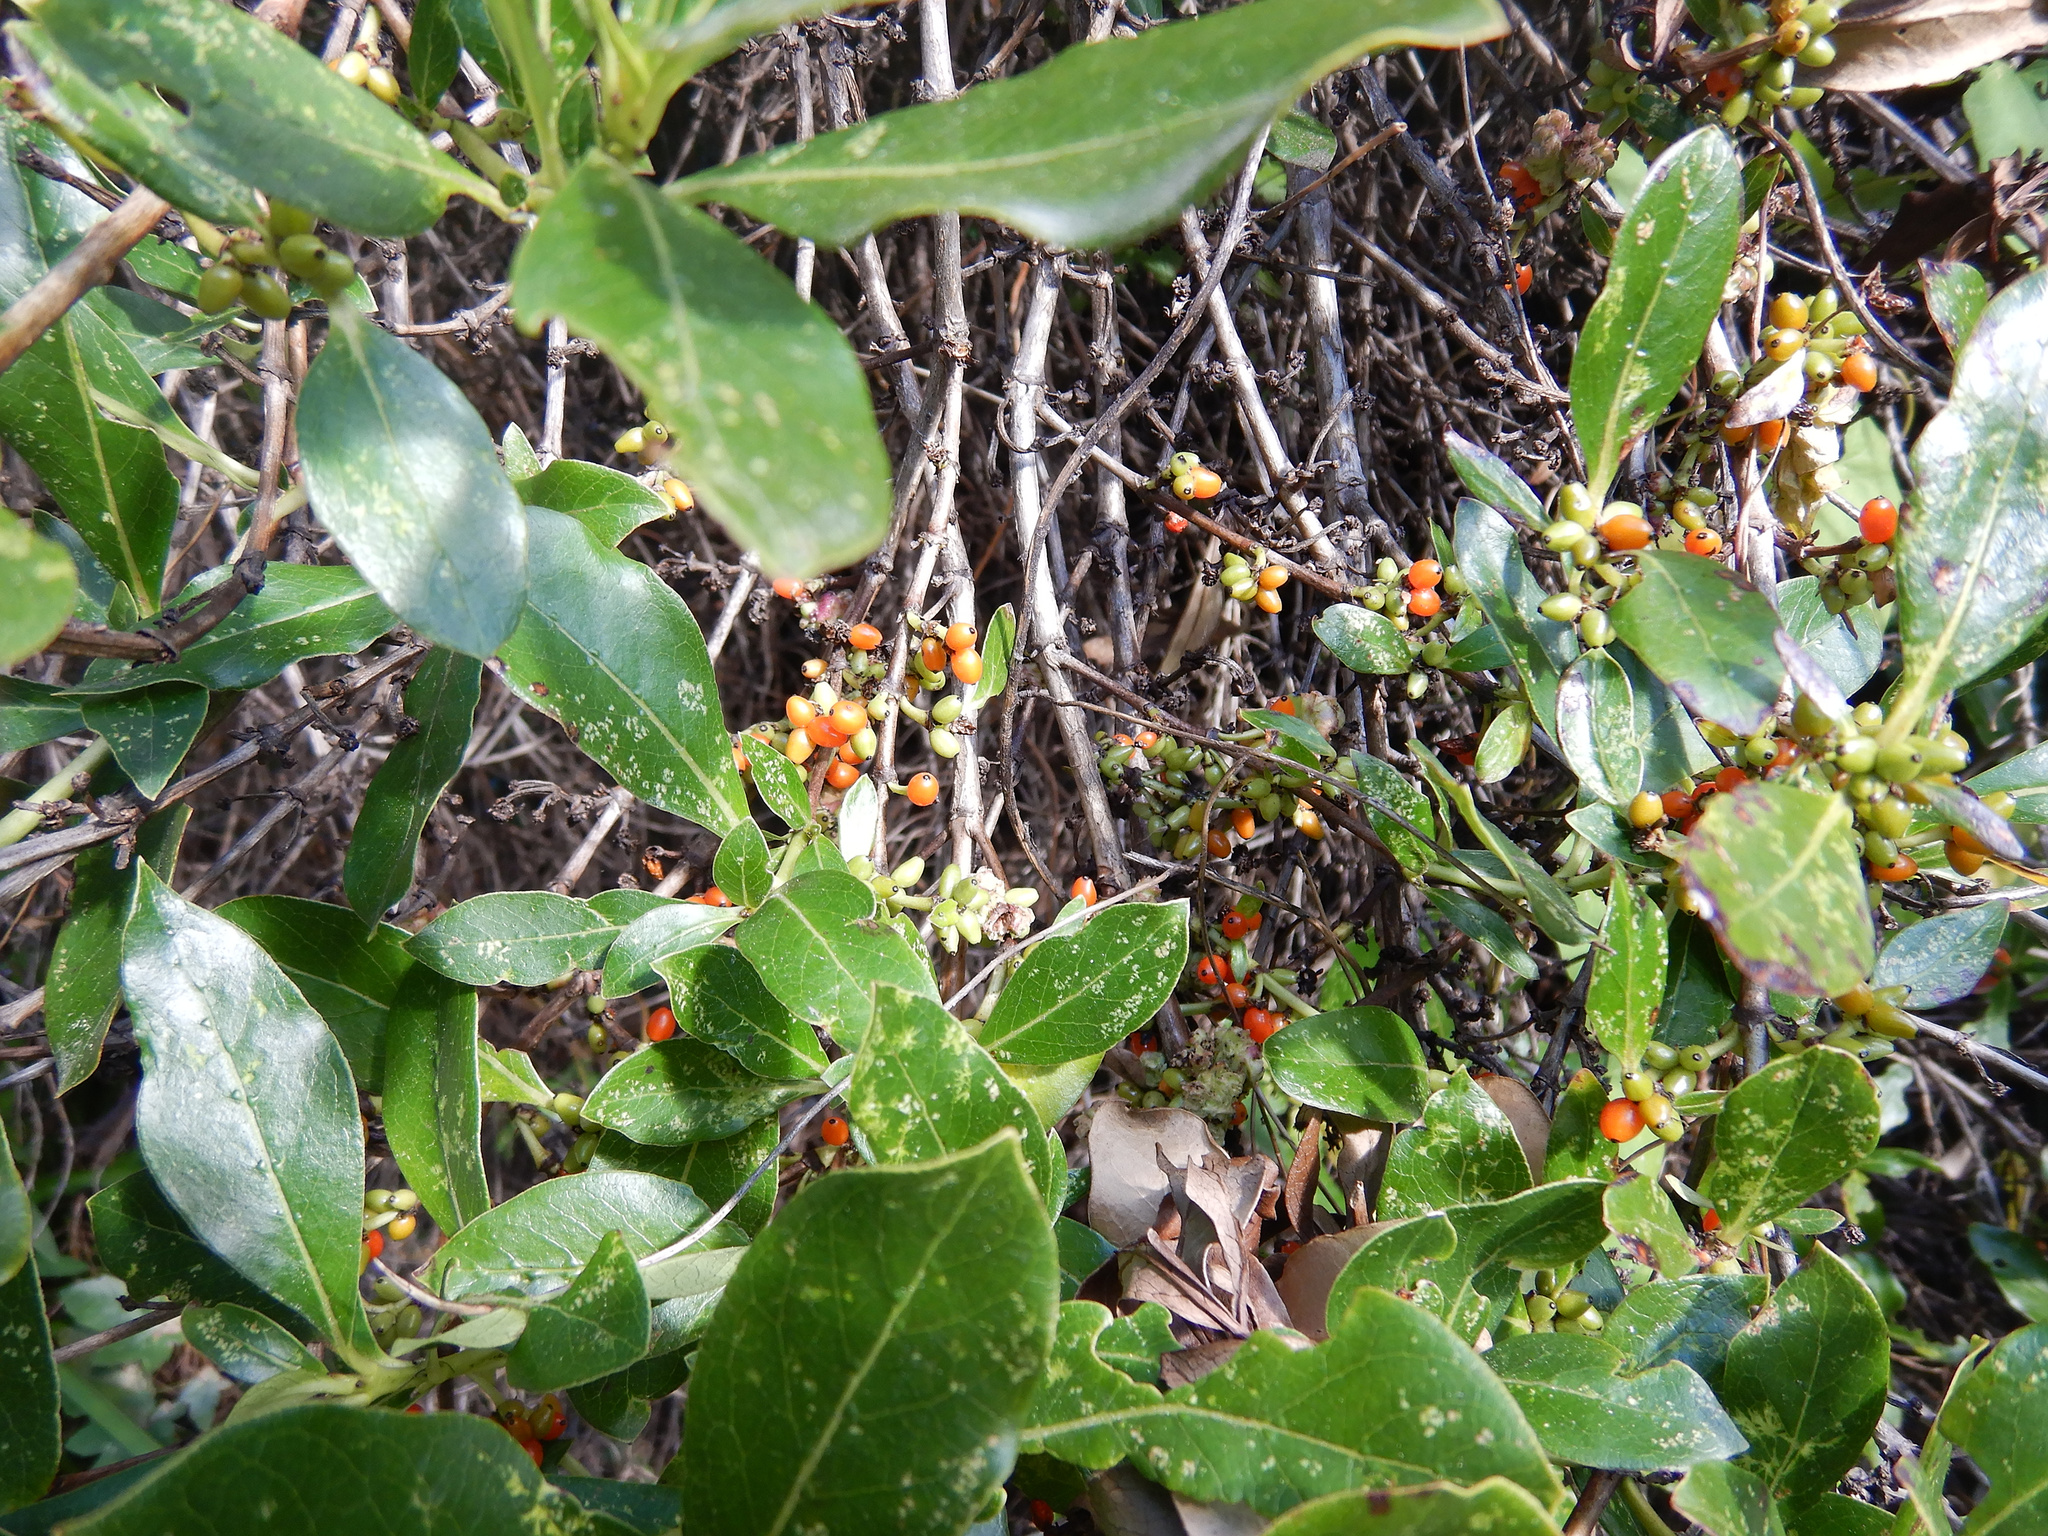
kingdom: Plantae
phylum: Tracheophyta
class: Magnoliopsida
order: Gentianales
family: Rubiaceae
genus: Coprosma
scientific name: Coprosma robusta
